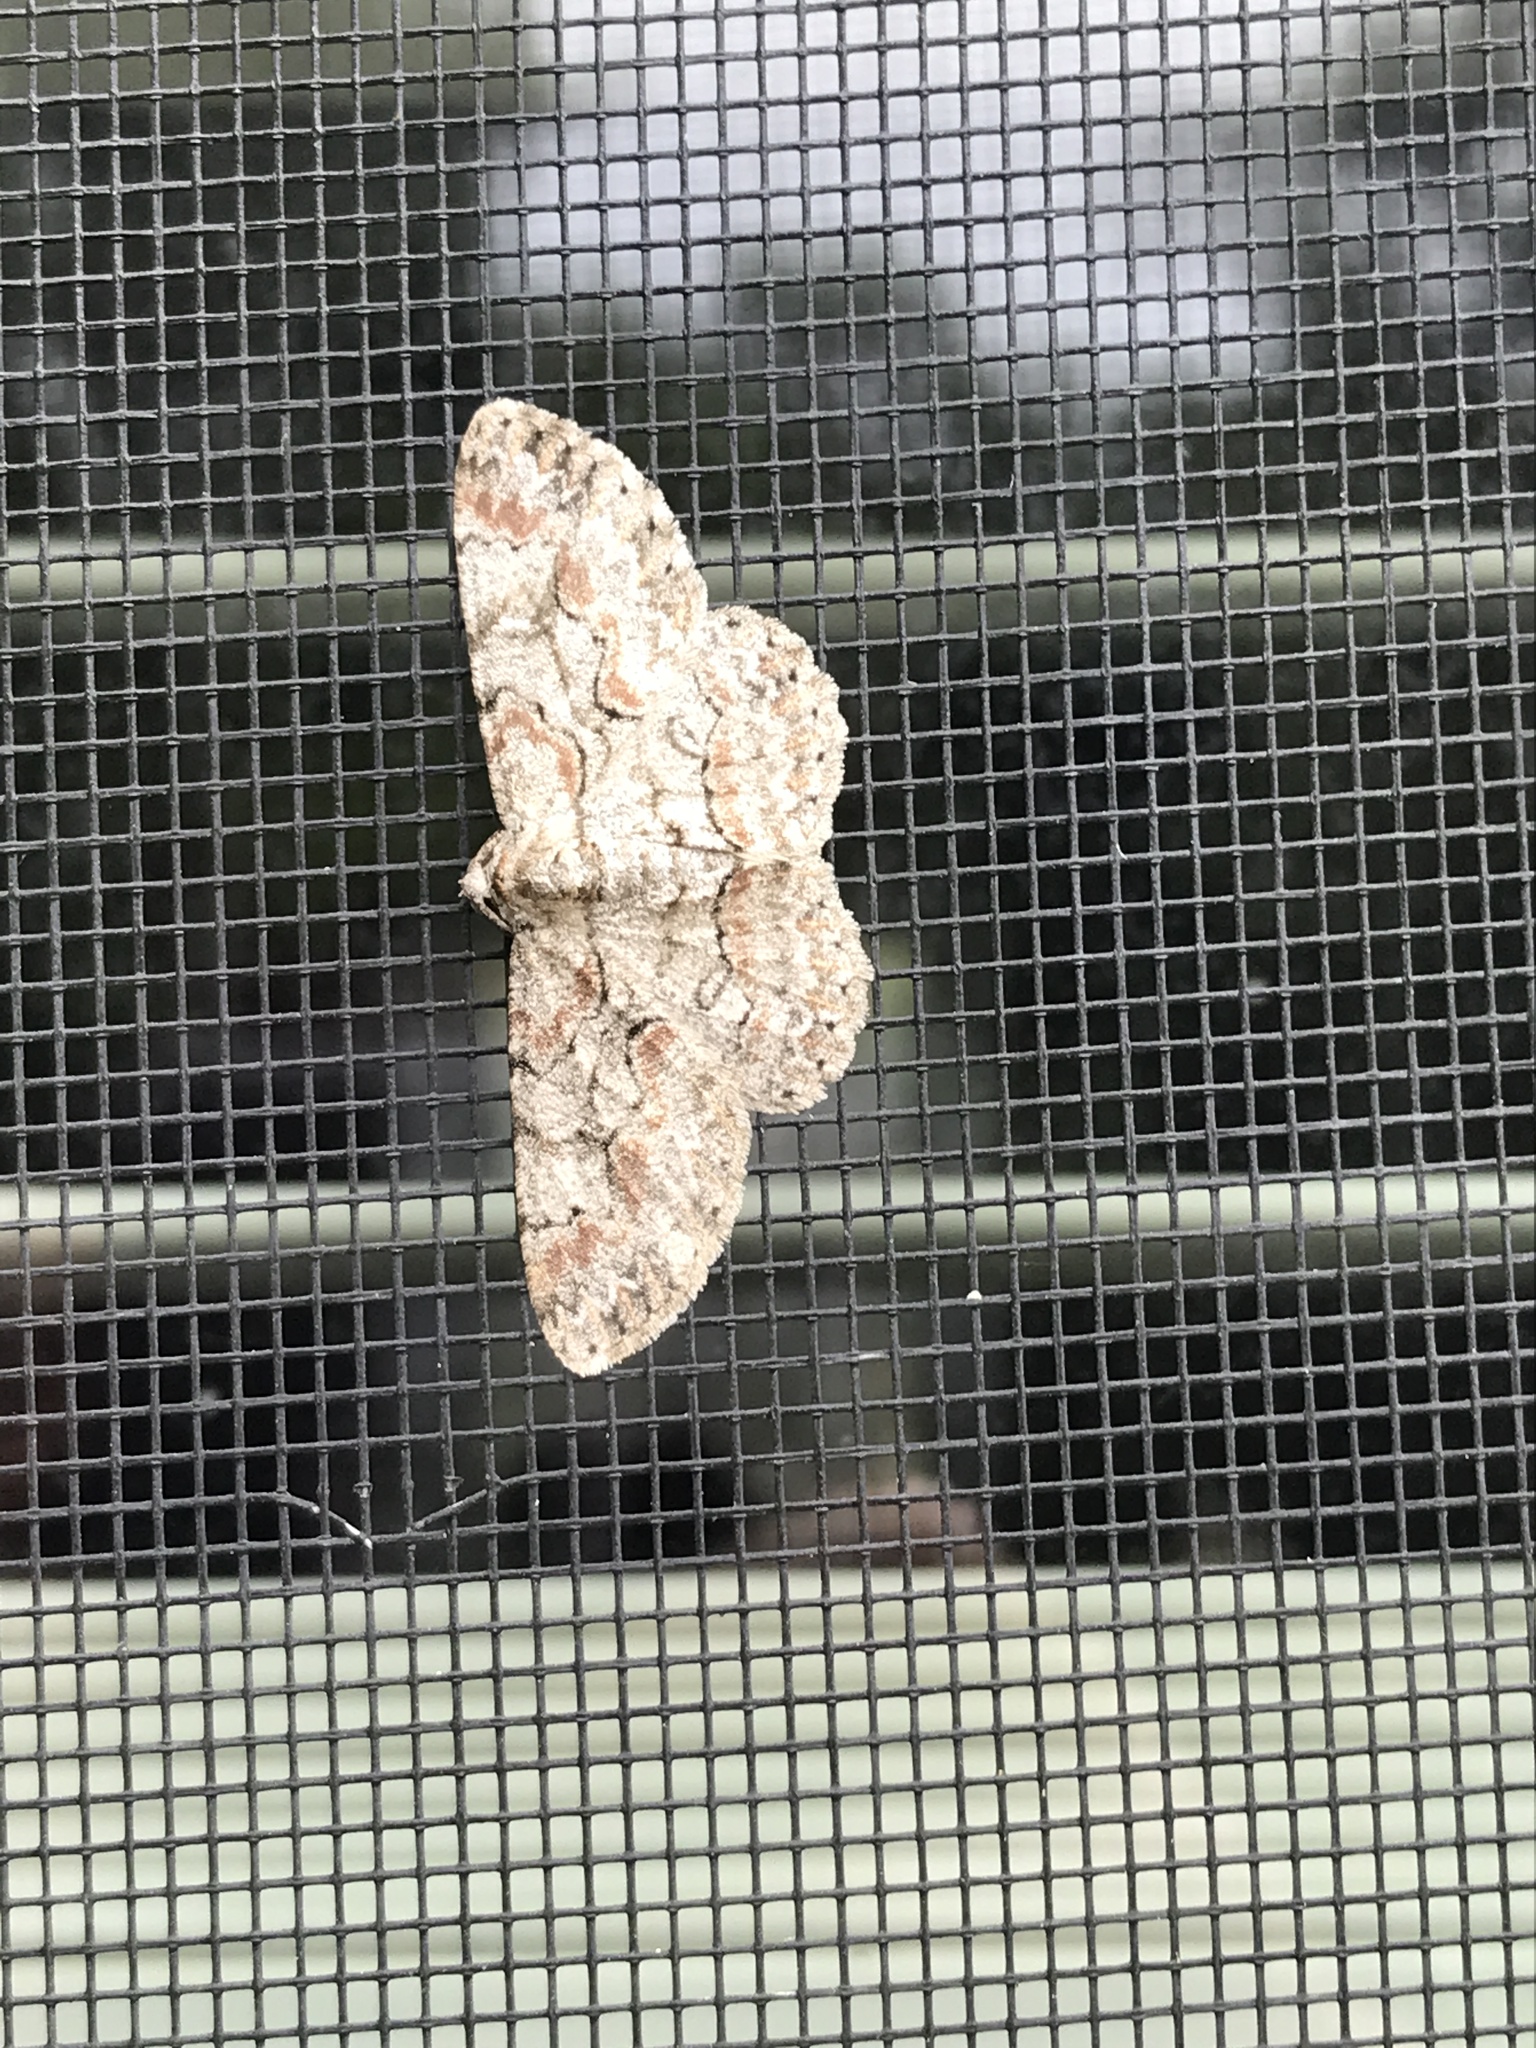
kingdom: Animalia
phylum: Arthropoda
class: Insecta
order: Lepidoptera
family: Geometridae
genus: Iridopsis
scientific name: Iridopsis defectaria
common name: Brown-shaded gray
